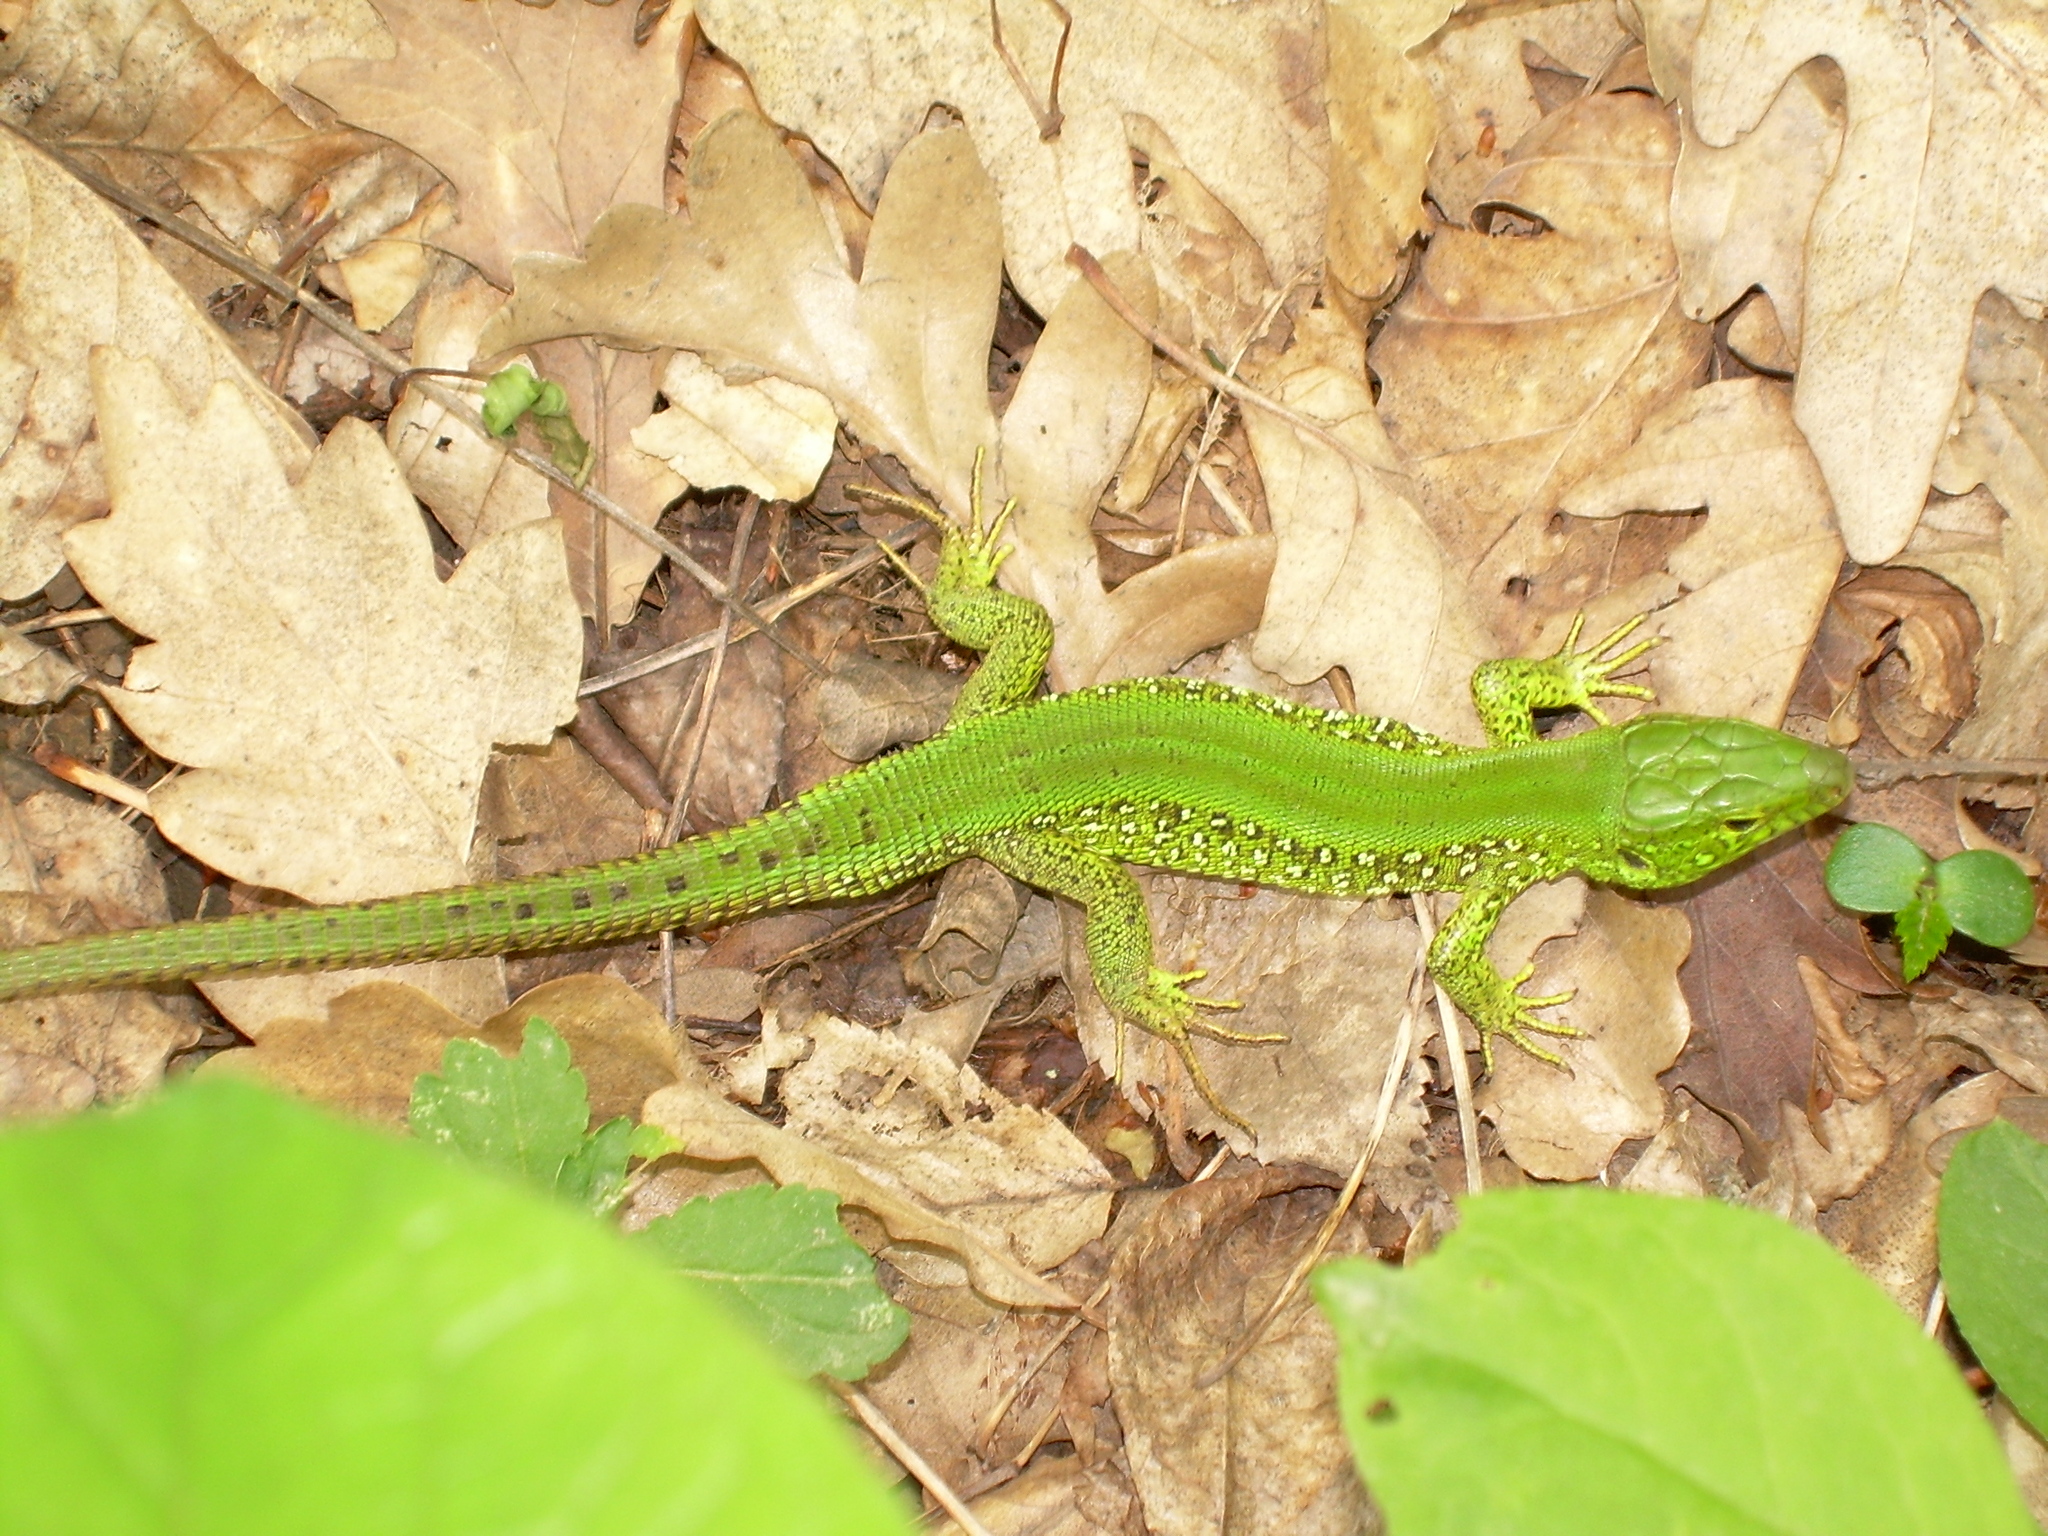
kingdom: Animalia
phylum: Chordata
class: Squamata
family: Lacertidae
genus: Lacerta
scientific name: Lacerta agilis
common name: Sand lizard
